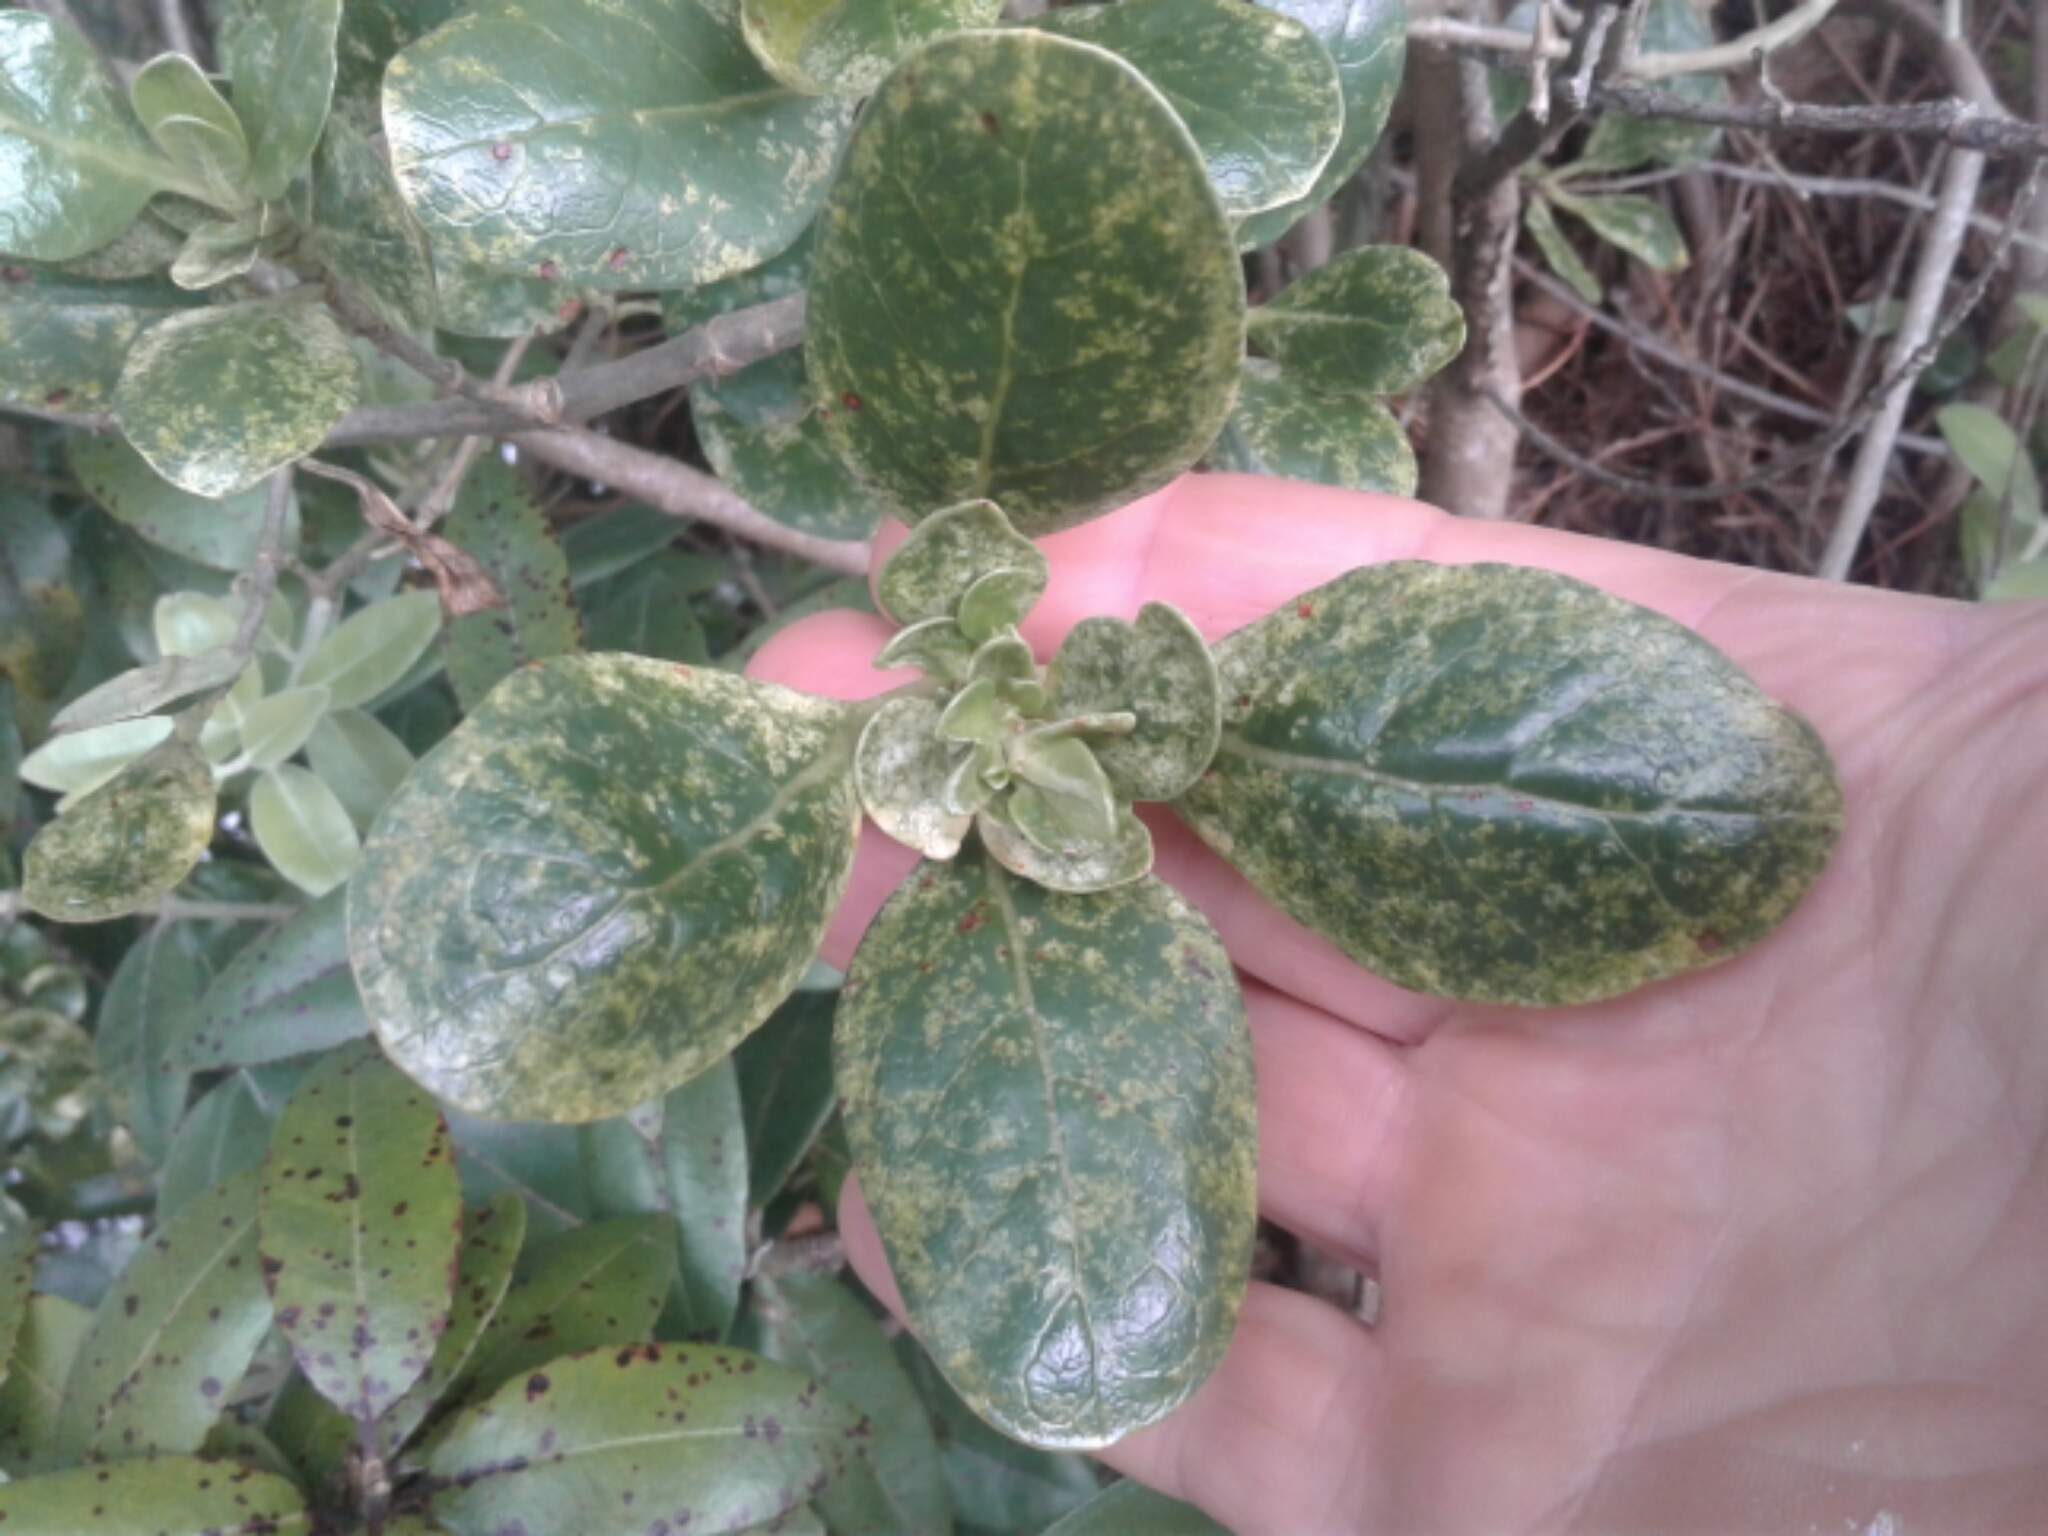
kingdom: Plantae
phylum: Tracheophyta
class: Magnoliopsida
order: Gentianales
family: Rubiaceae
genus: Coprosma
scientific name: Coprosma repens
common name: Tree bedstraw
